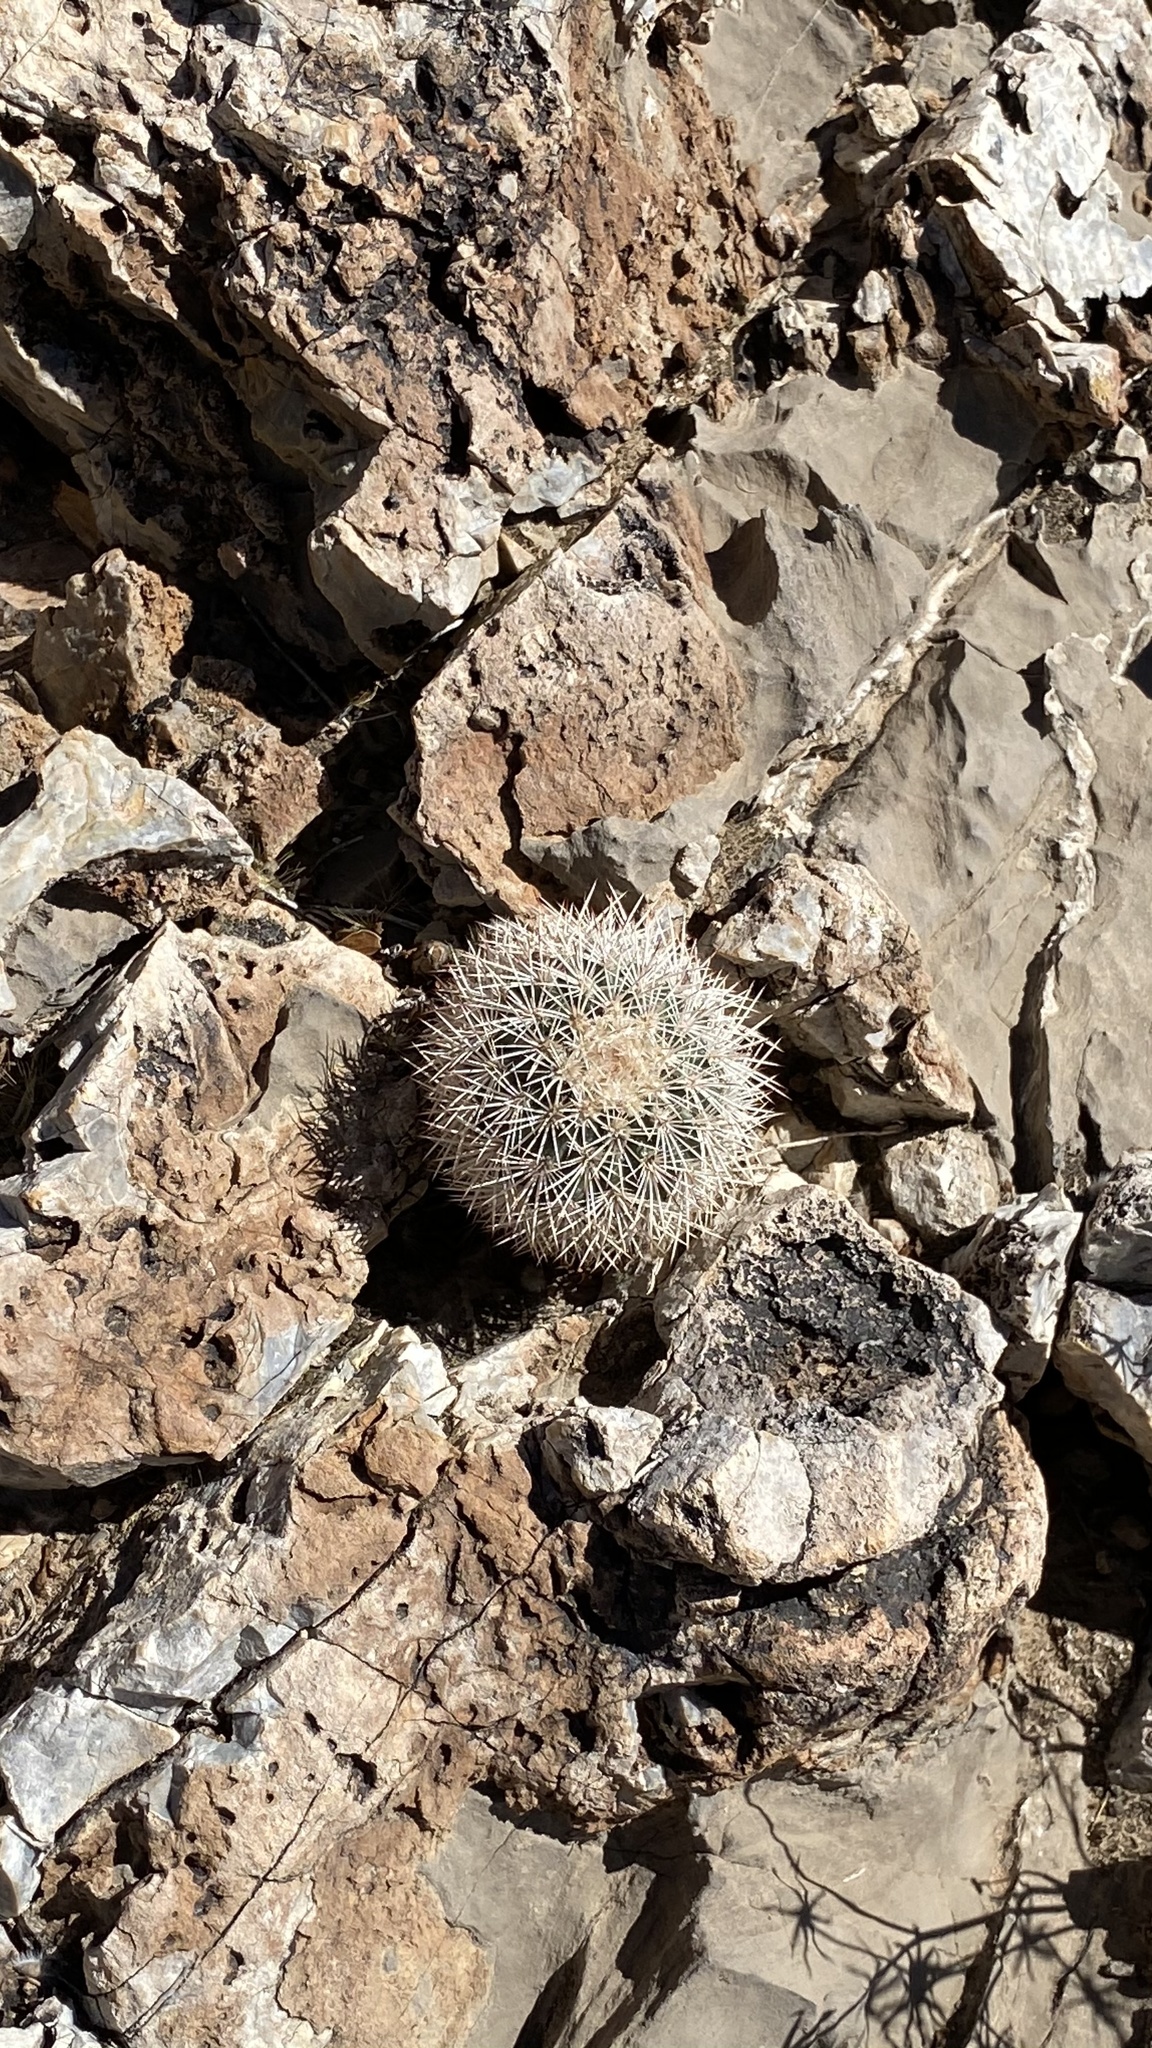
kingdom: Plantae
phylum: Tracheophyta
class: Magnoliopsida
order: Caryophyllales
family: Cactaceae
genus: Echinocereus
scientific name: Echinocereus dasyacanthus
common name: Spiny hedgehog cactus
